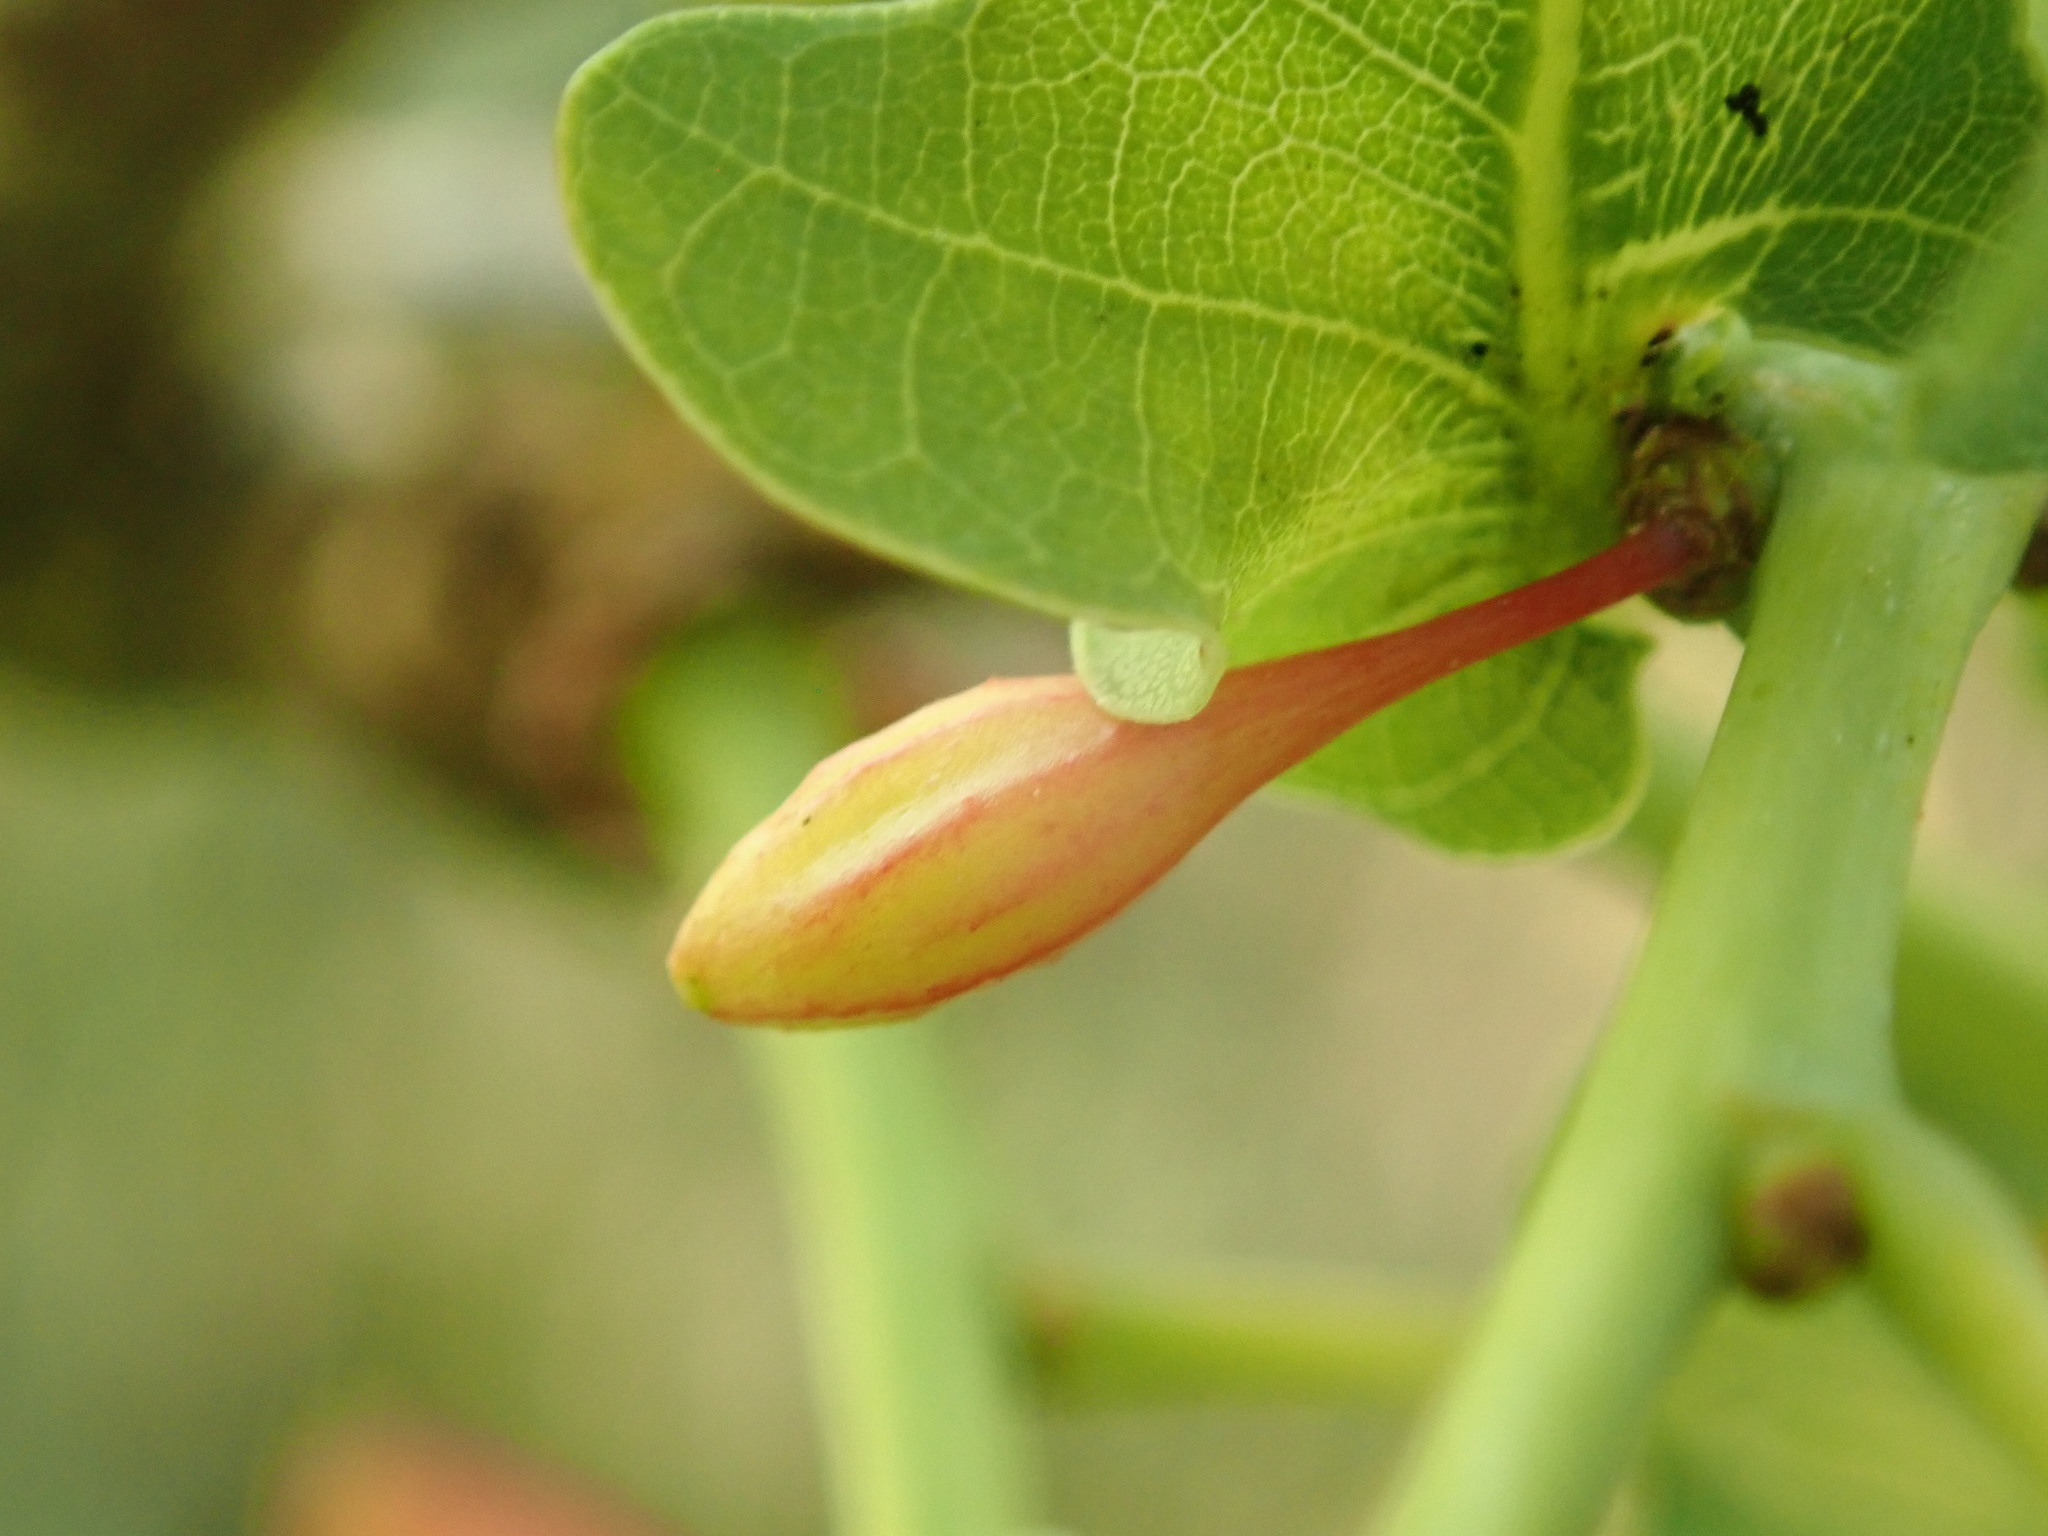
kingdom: Animalia
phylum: Arthropoda
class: Insecta
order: Hymenoptera
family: Cynipidae
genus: Andricus
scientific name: Andricus callidoma
